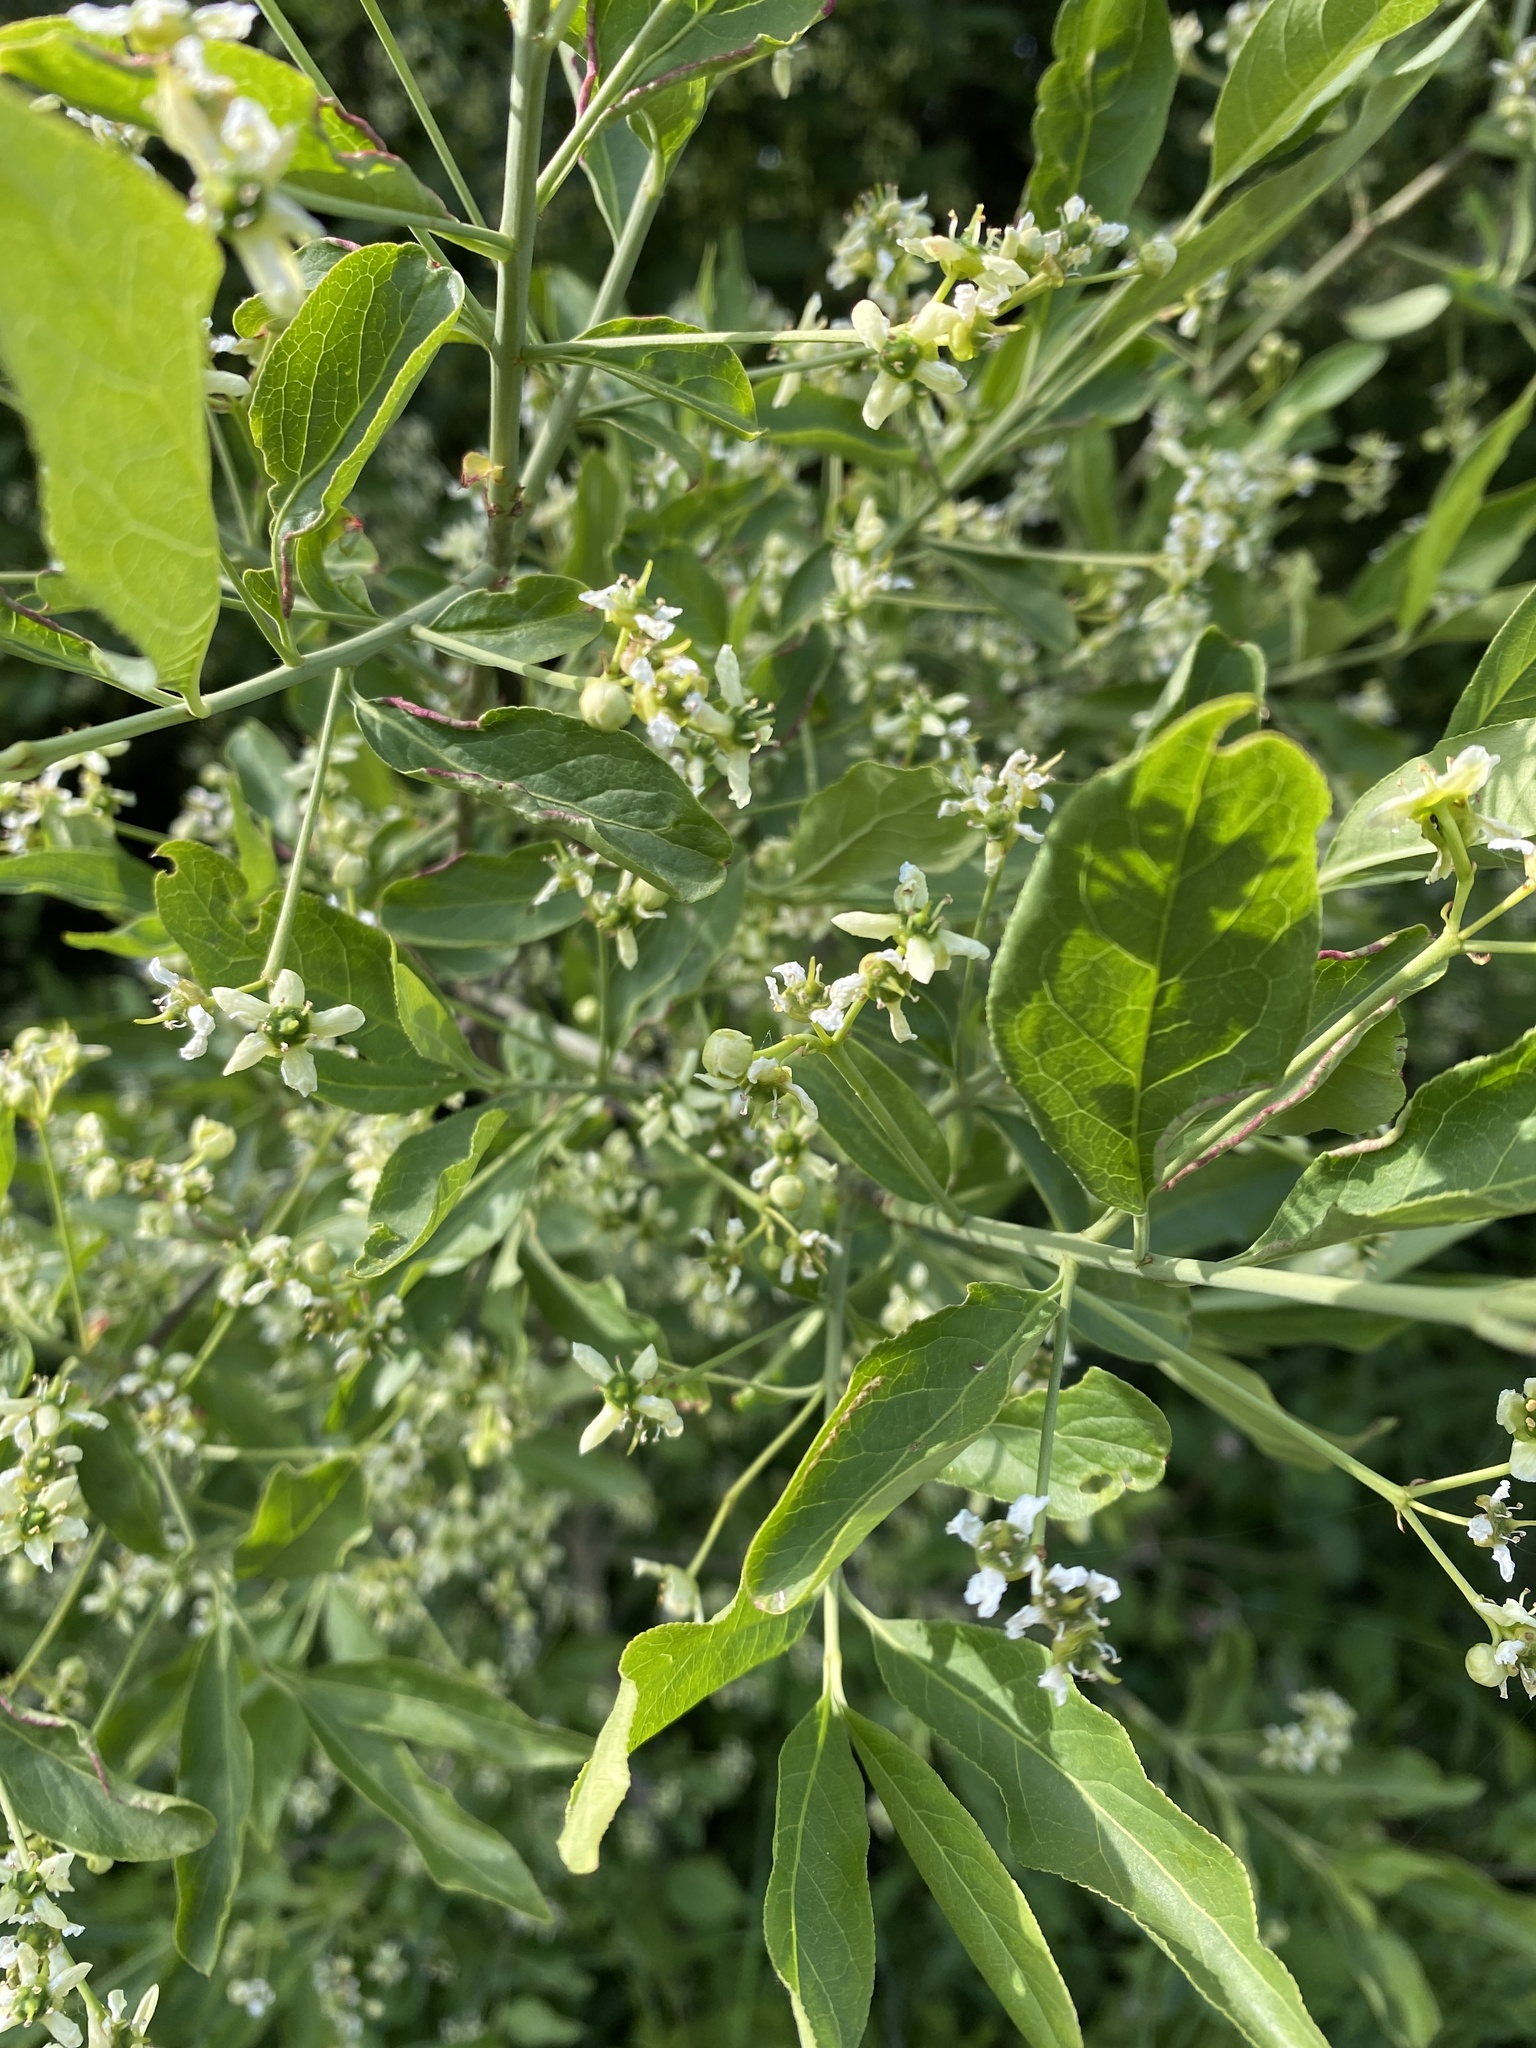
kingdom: Plantae
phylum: Tracheophyta
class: Magnoliopsida
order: Celastrales
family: Celastraceae
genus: Euonymus
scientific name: Euonymus europaeus
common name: Spindle
